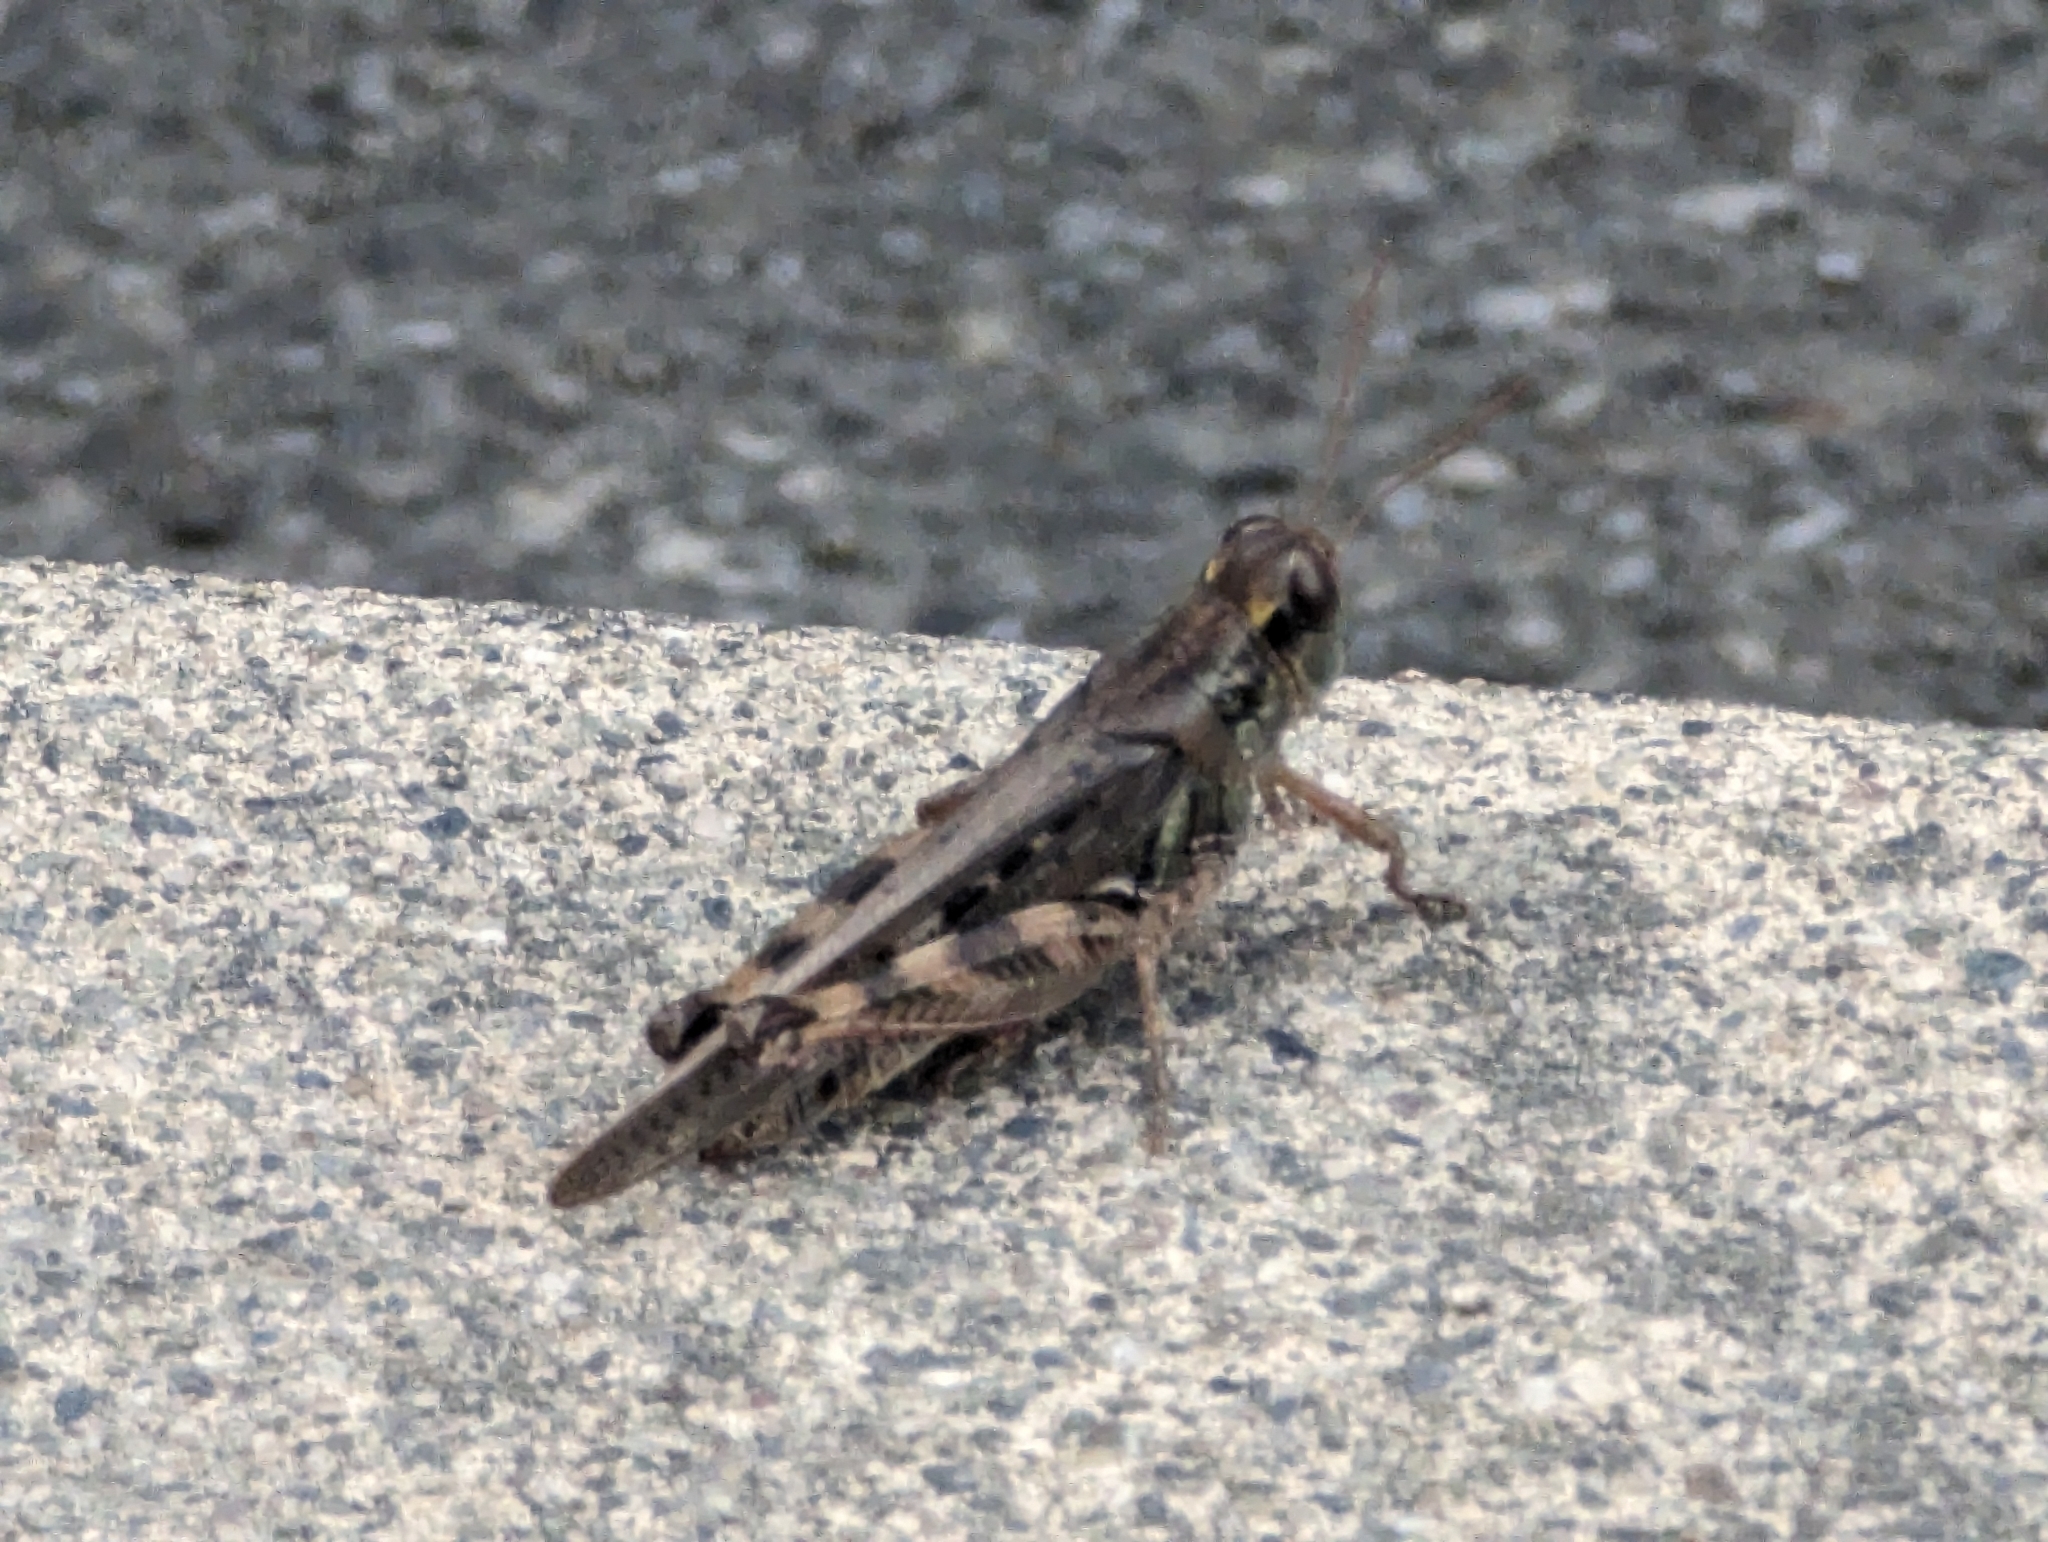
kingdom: Animalia
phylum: Arthropoda
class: Insecta
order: Orthoptera
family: Acrididae
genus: Melanoplus
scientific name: Melanoplus sanguinipes
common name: Migratory grasshopper
